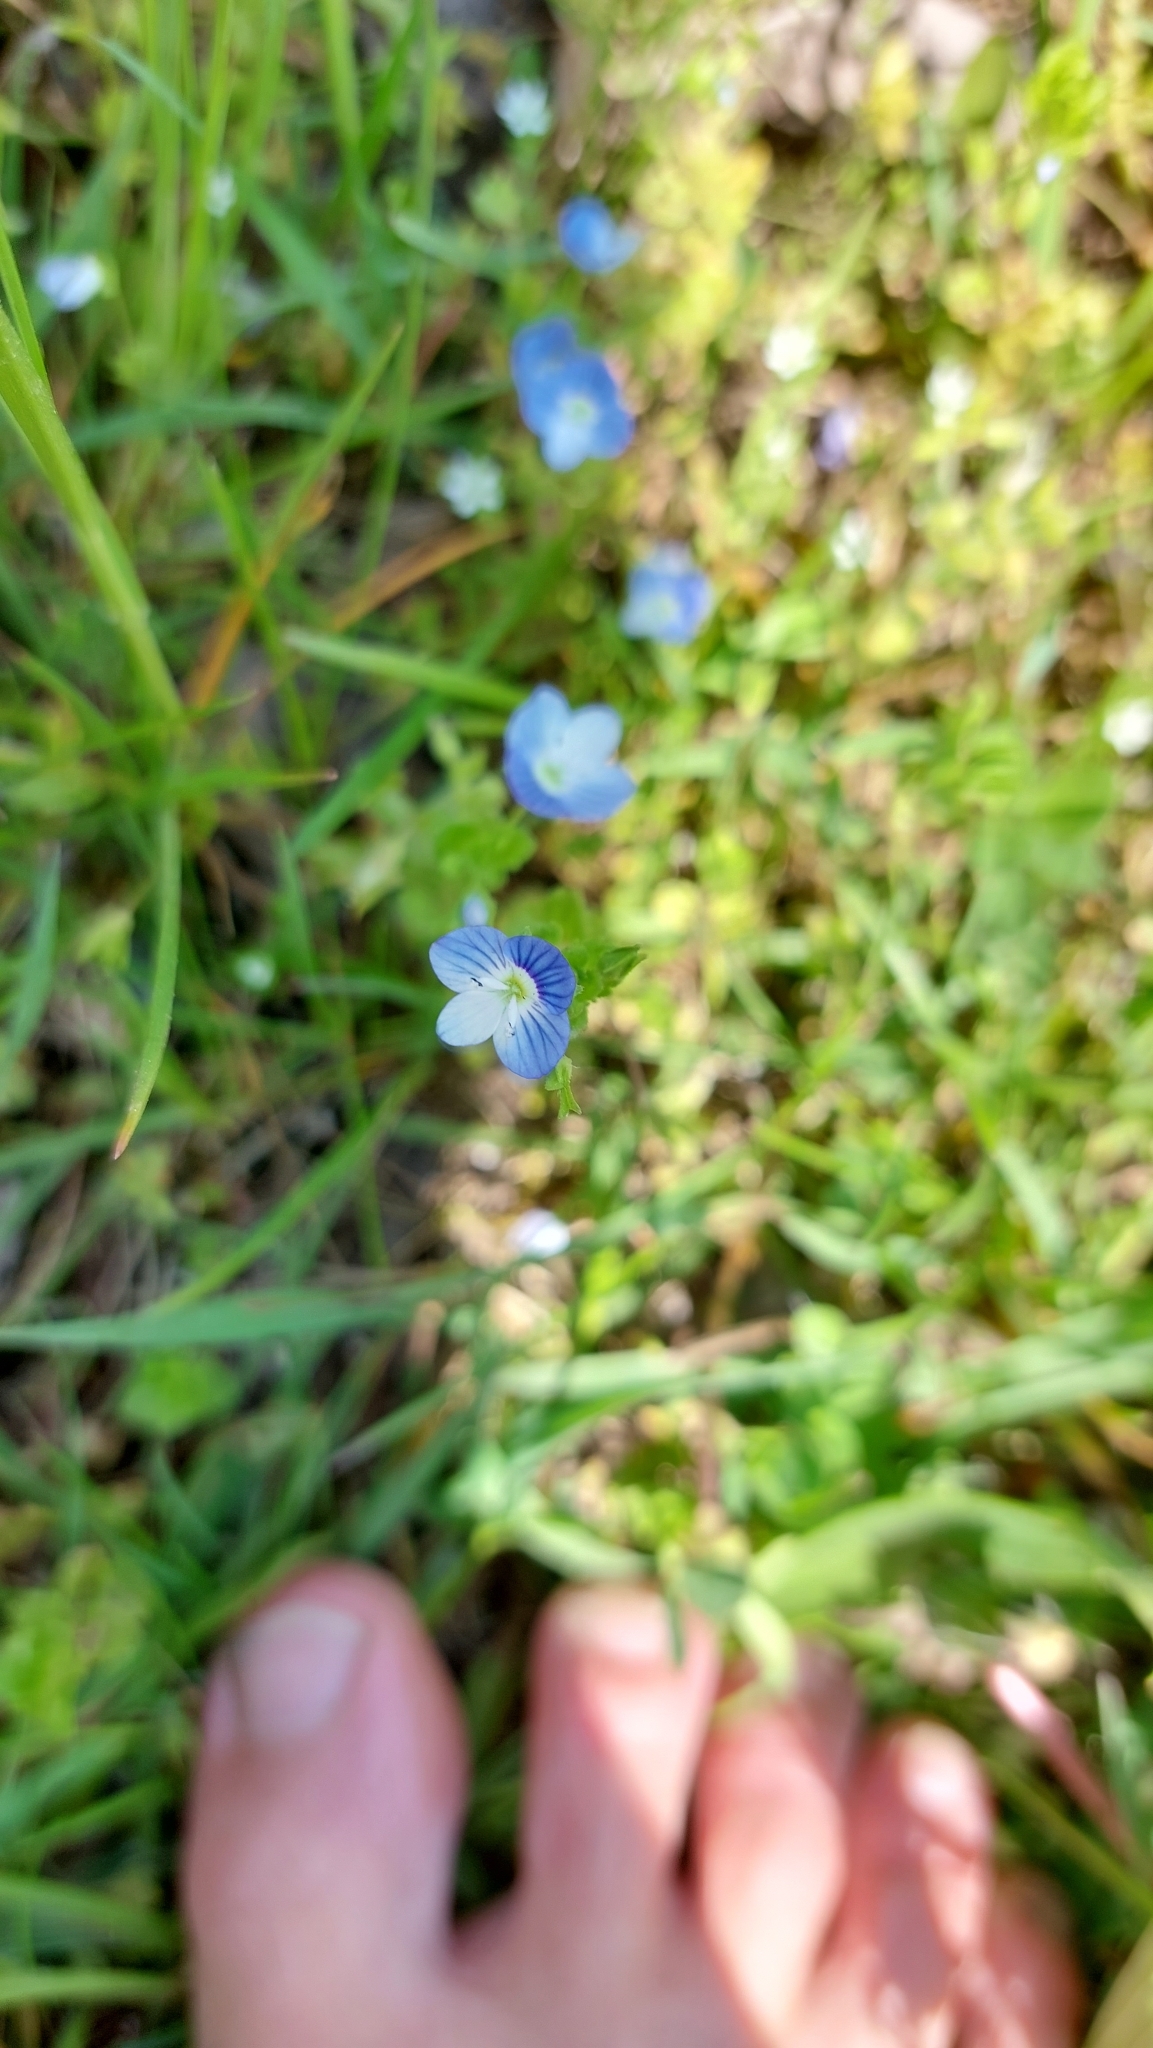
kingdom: Plantae
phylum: Tracheophyta
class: Magnoliopsida
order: Lamiales
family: Plantaginaceae
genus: Veronica
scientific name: Veronica persica
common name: Common field-speedwell
